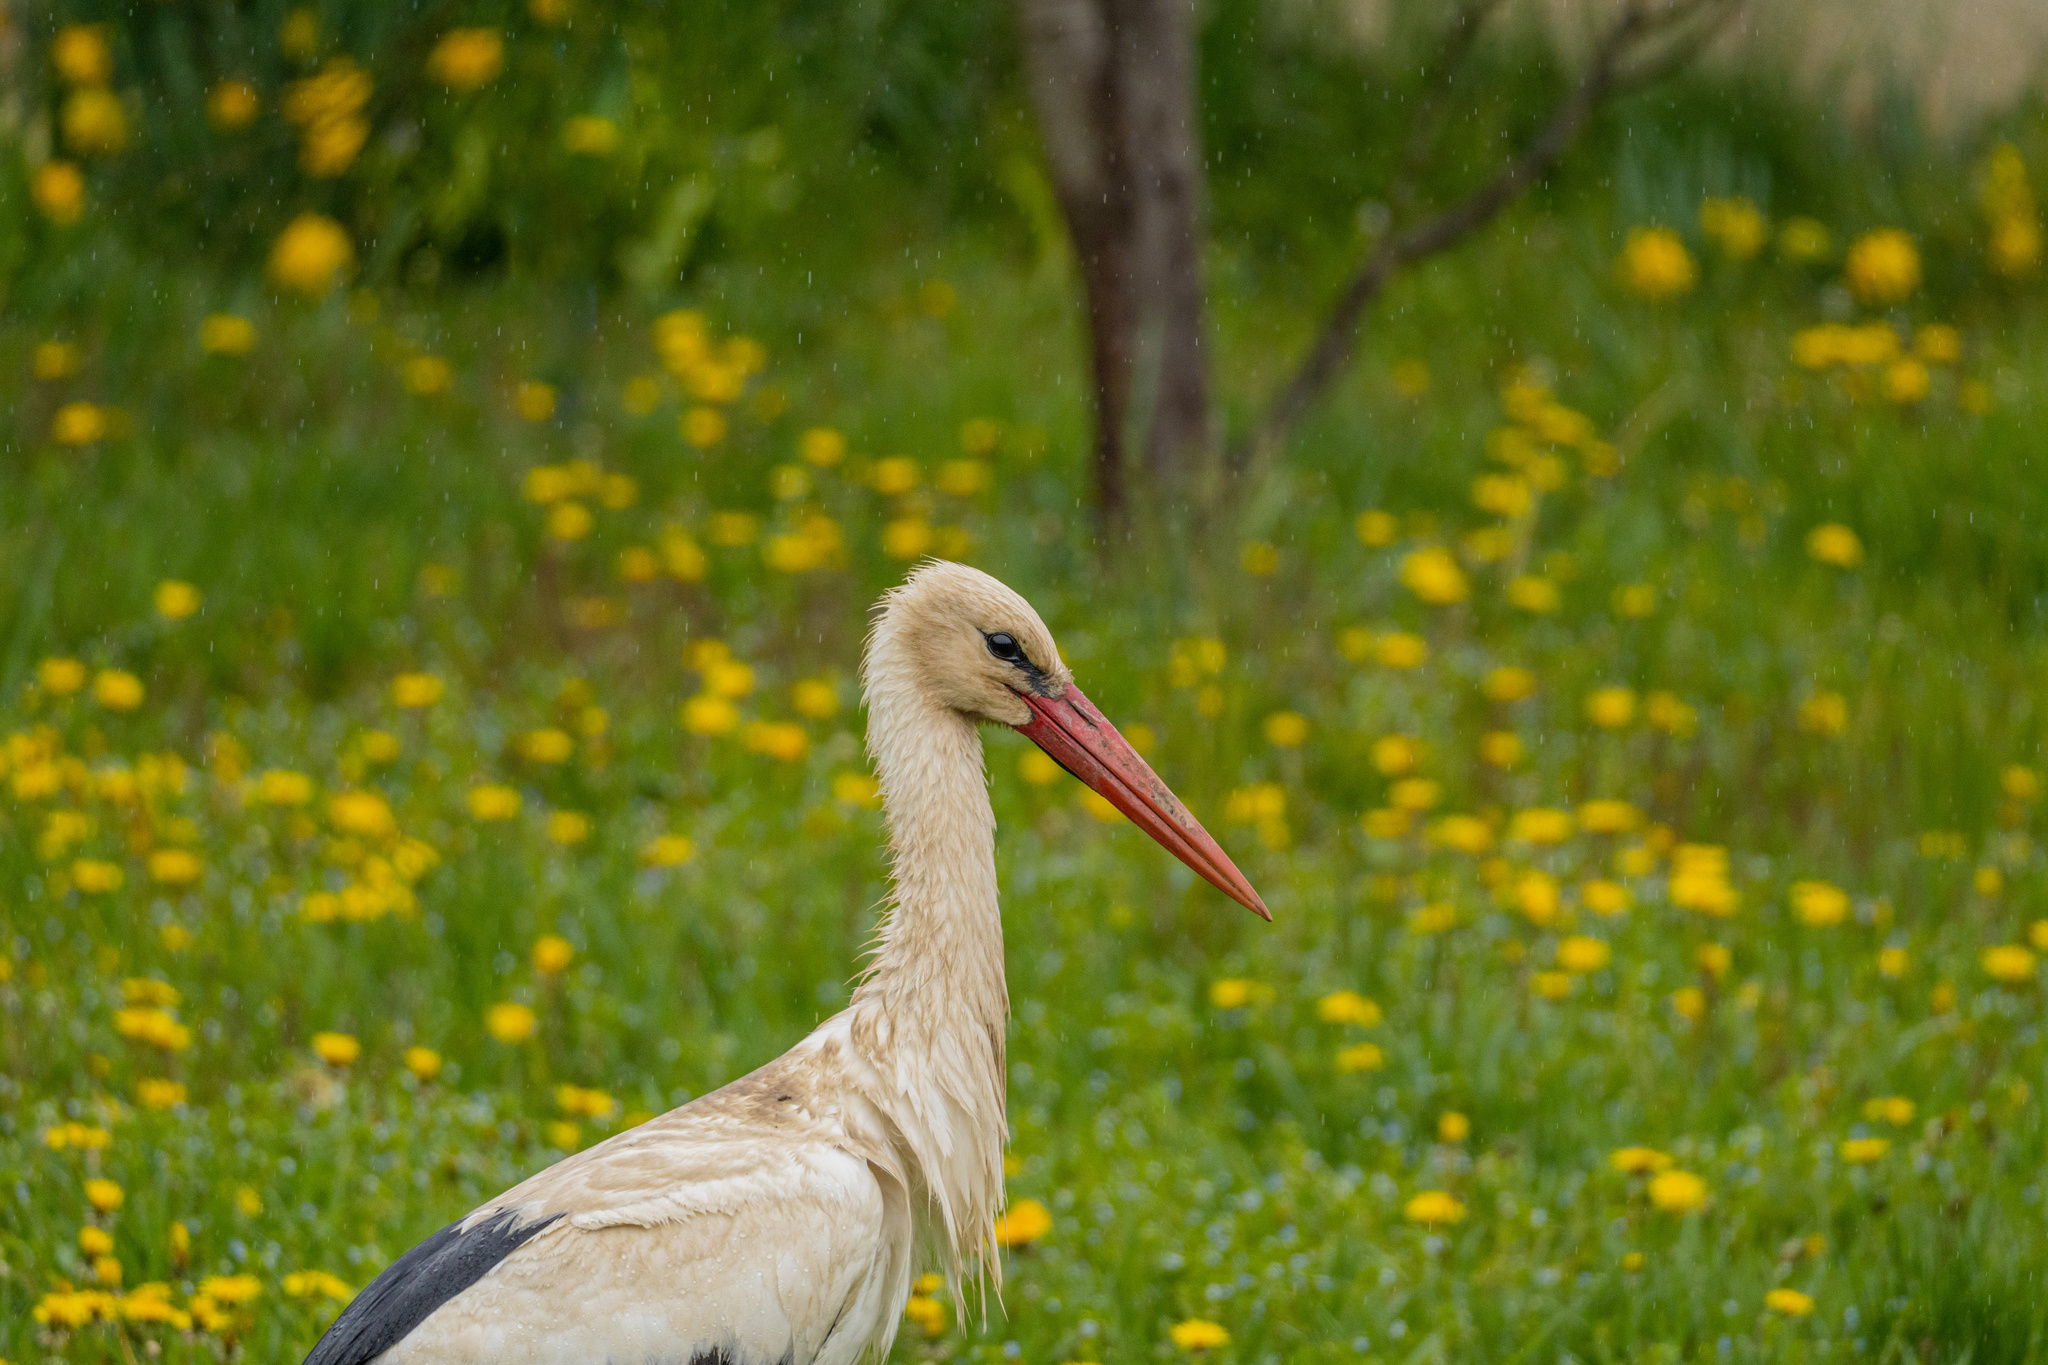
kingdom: Animalia
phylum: Chordata
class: Aves
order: Ciconiiformes
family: Ciconiidae
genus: Ciconia
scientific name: Ciconia ciconia
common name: White stork
